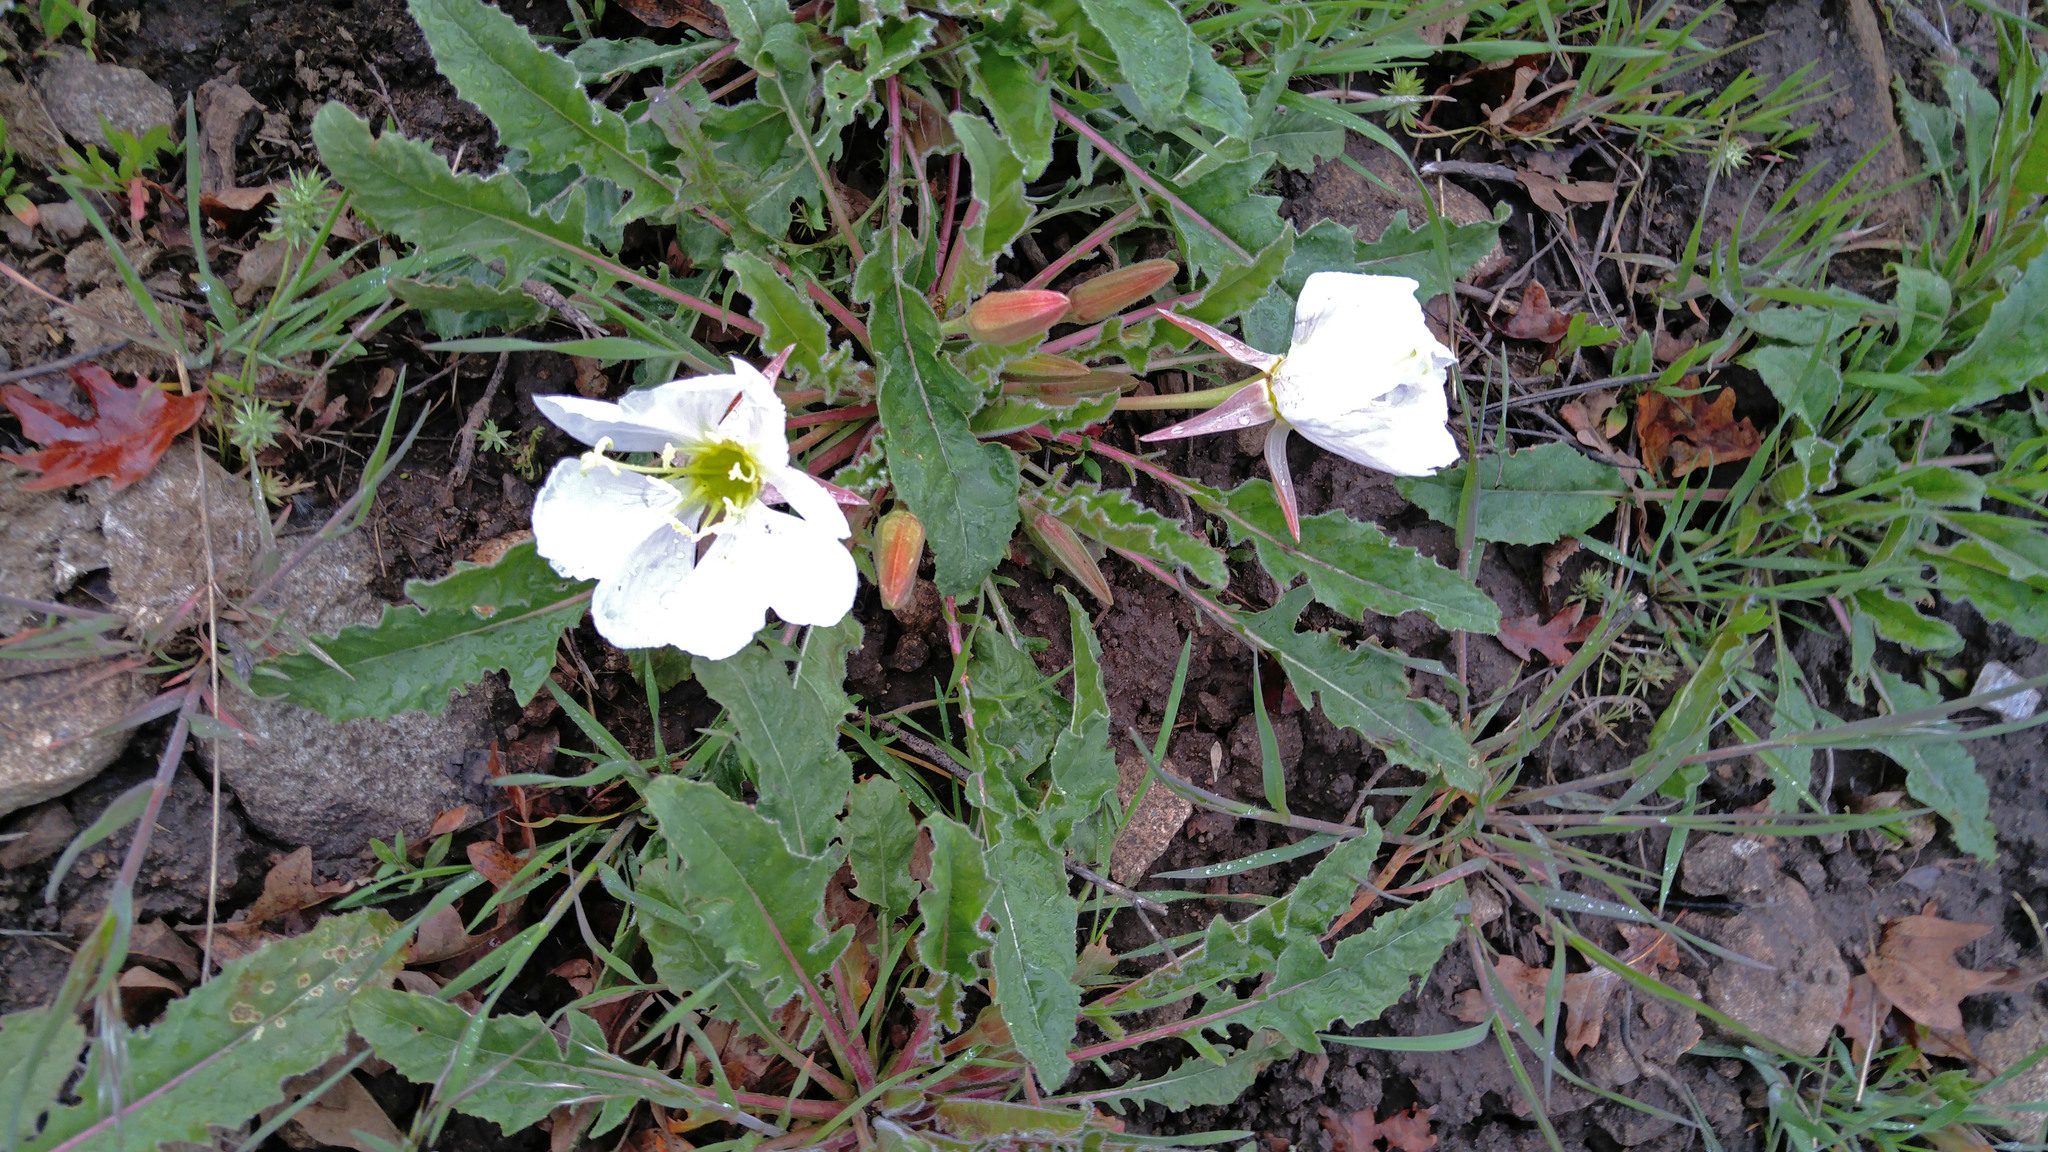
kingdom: Plantae
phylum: Tracheophyta
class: Magnoliopsida
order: Myrtales
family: Onagraceae
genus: Oenothera
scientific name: Oenothera cespitosa
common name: Tufted evening-primrose
